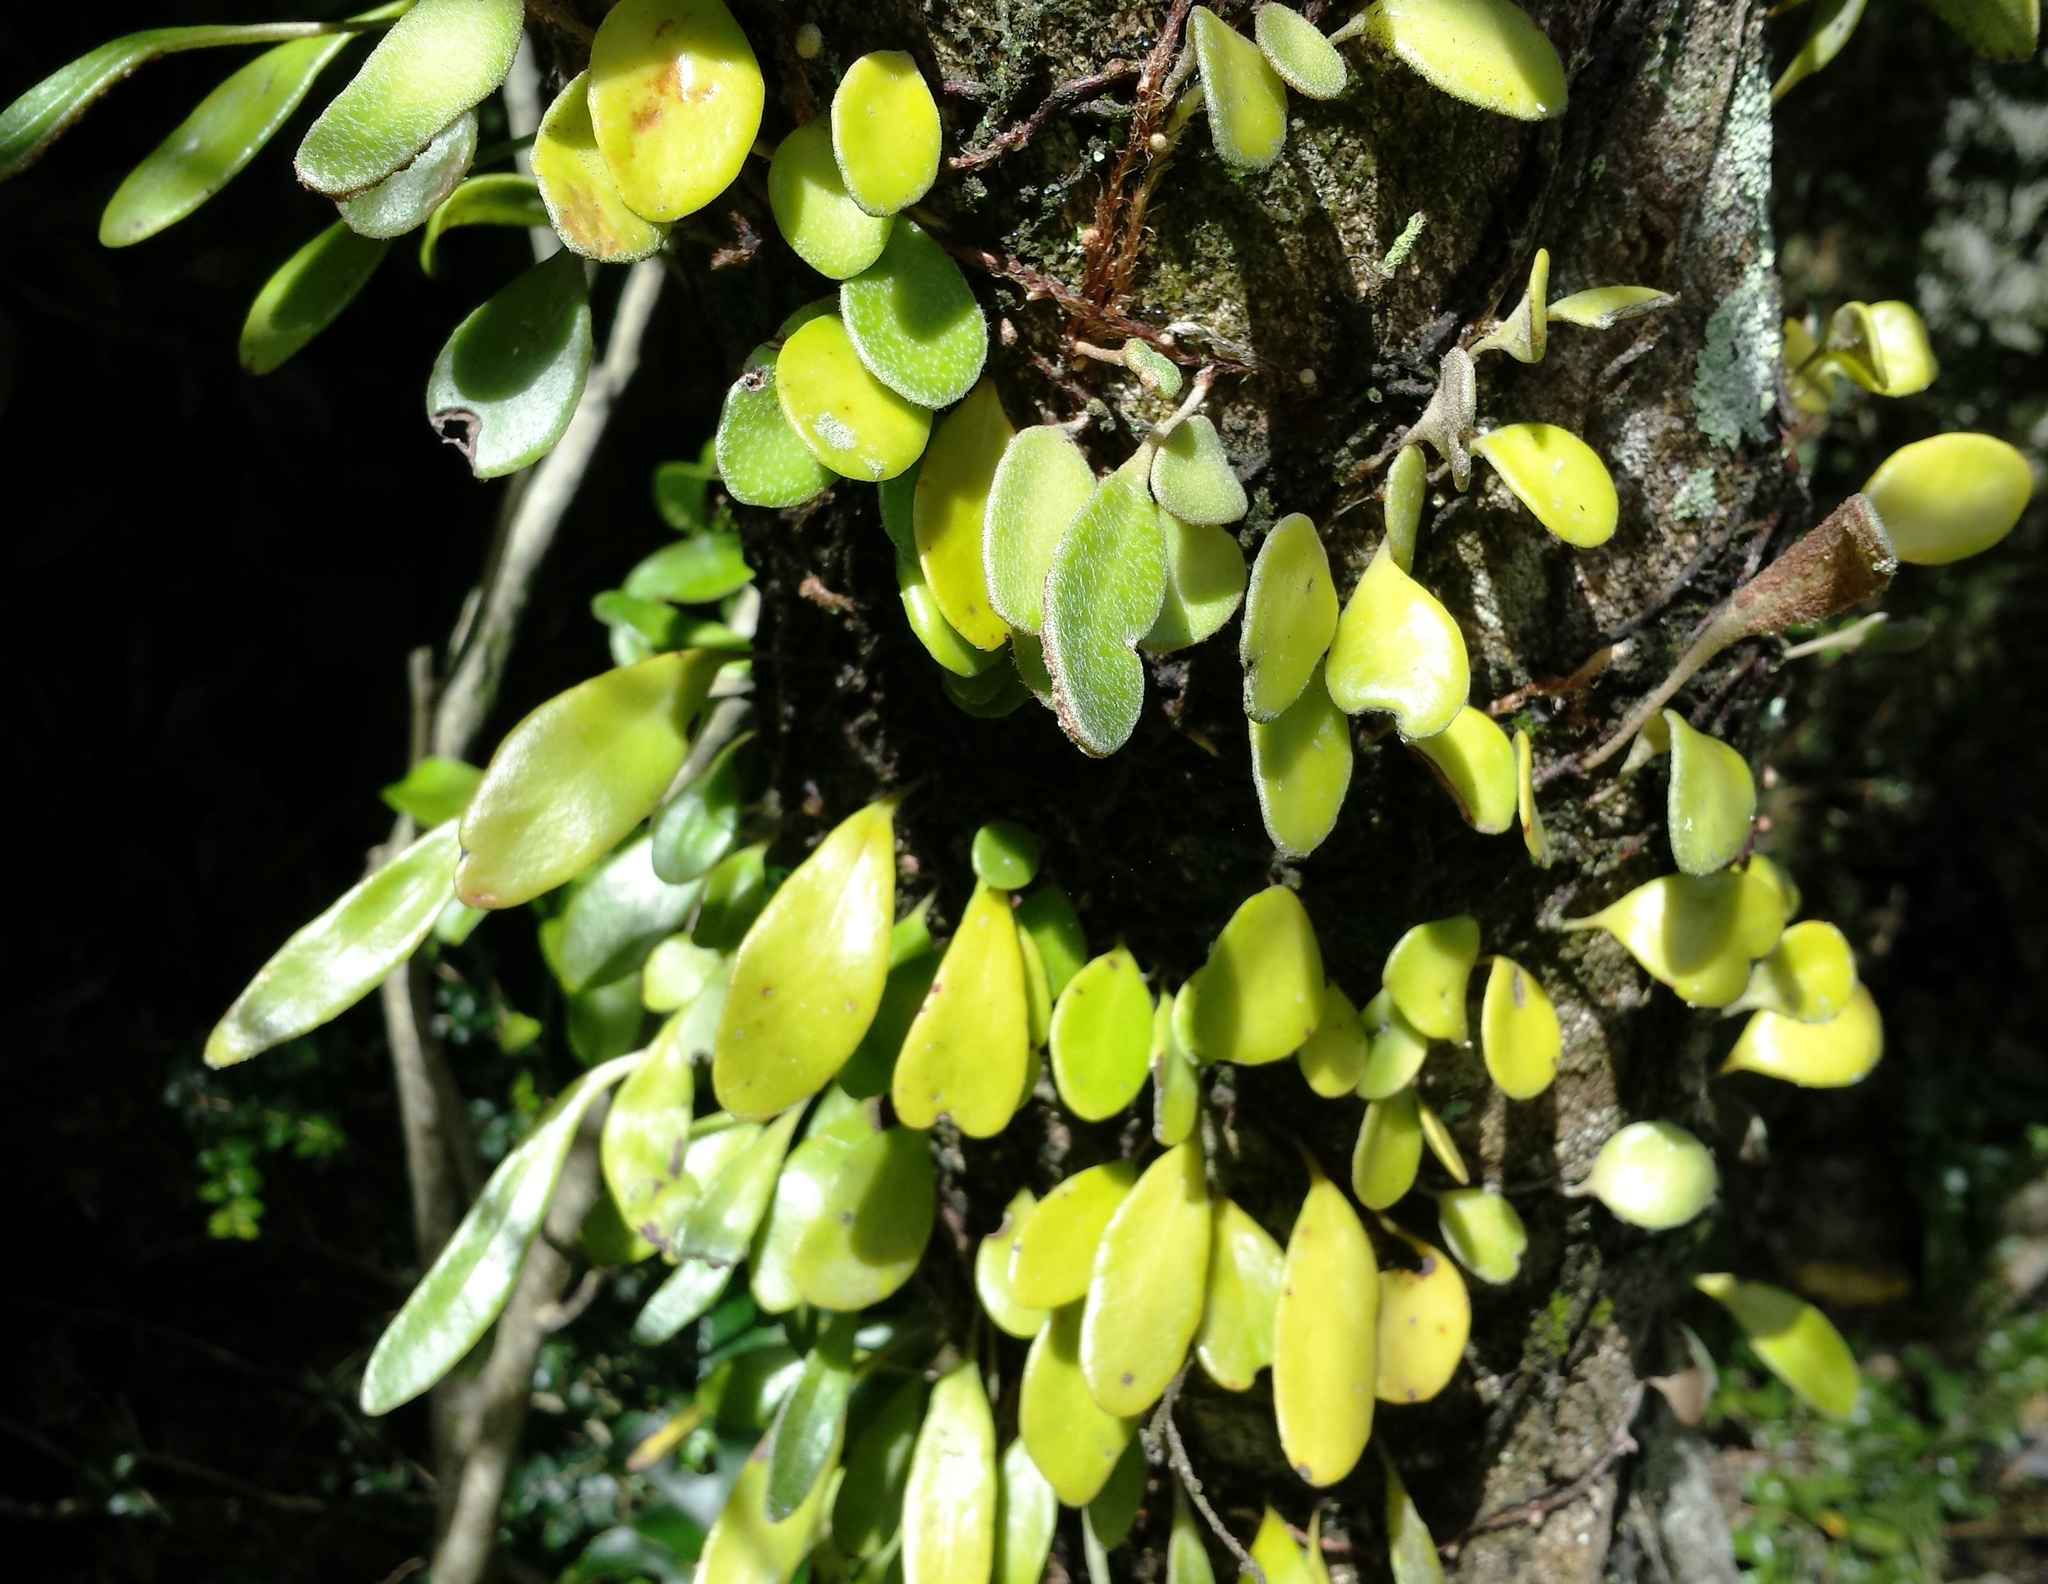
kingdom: Plantae
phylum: Tracheophyta
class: Polypodiopsida
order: Polypodiales
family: Polypodiaceae
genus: Pyrrosia
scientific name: Pyrrosia eleagnifolia
